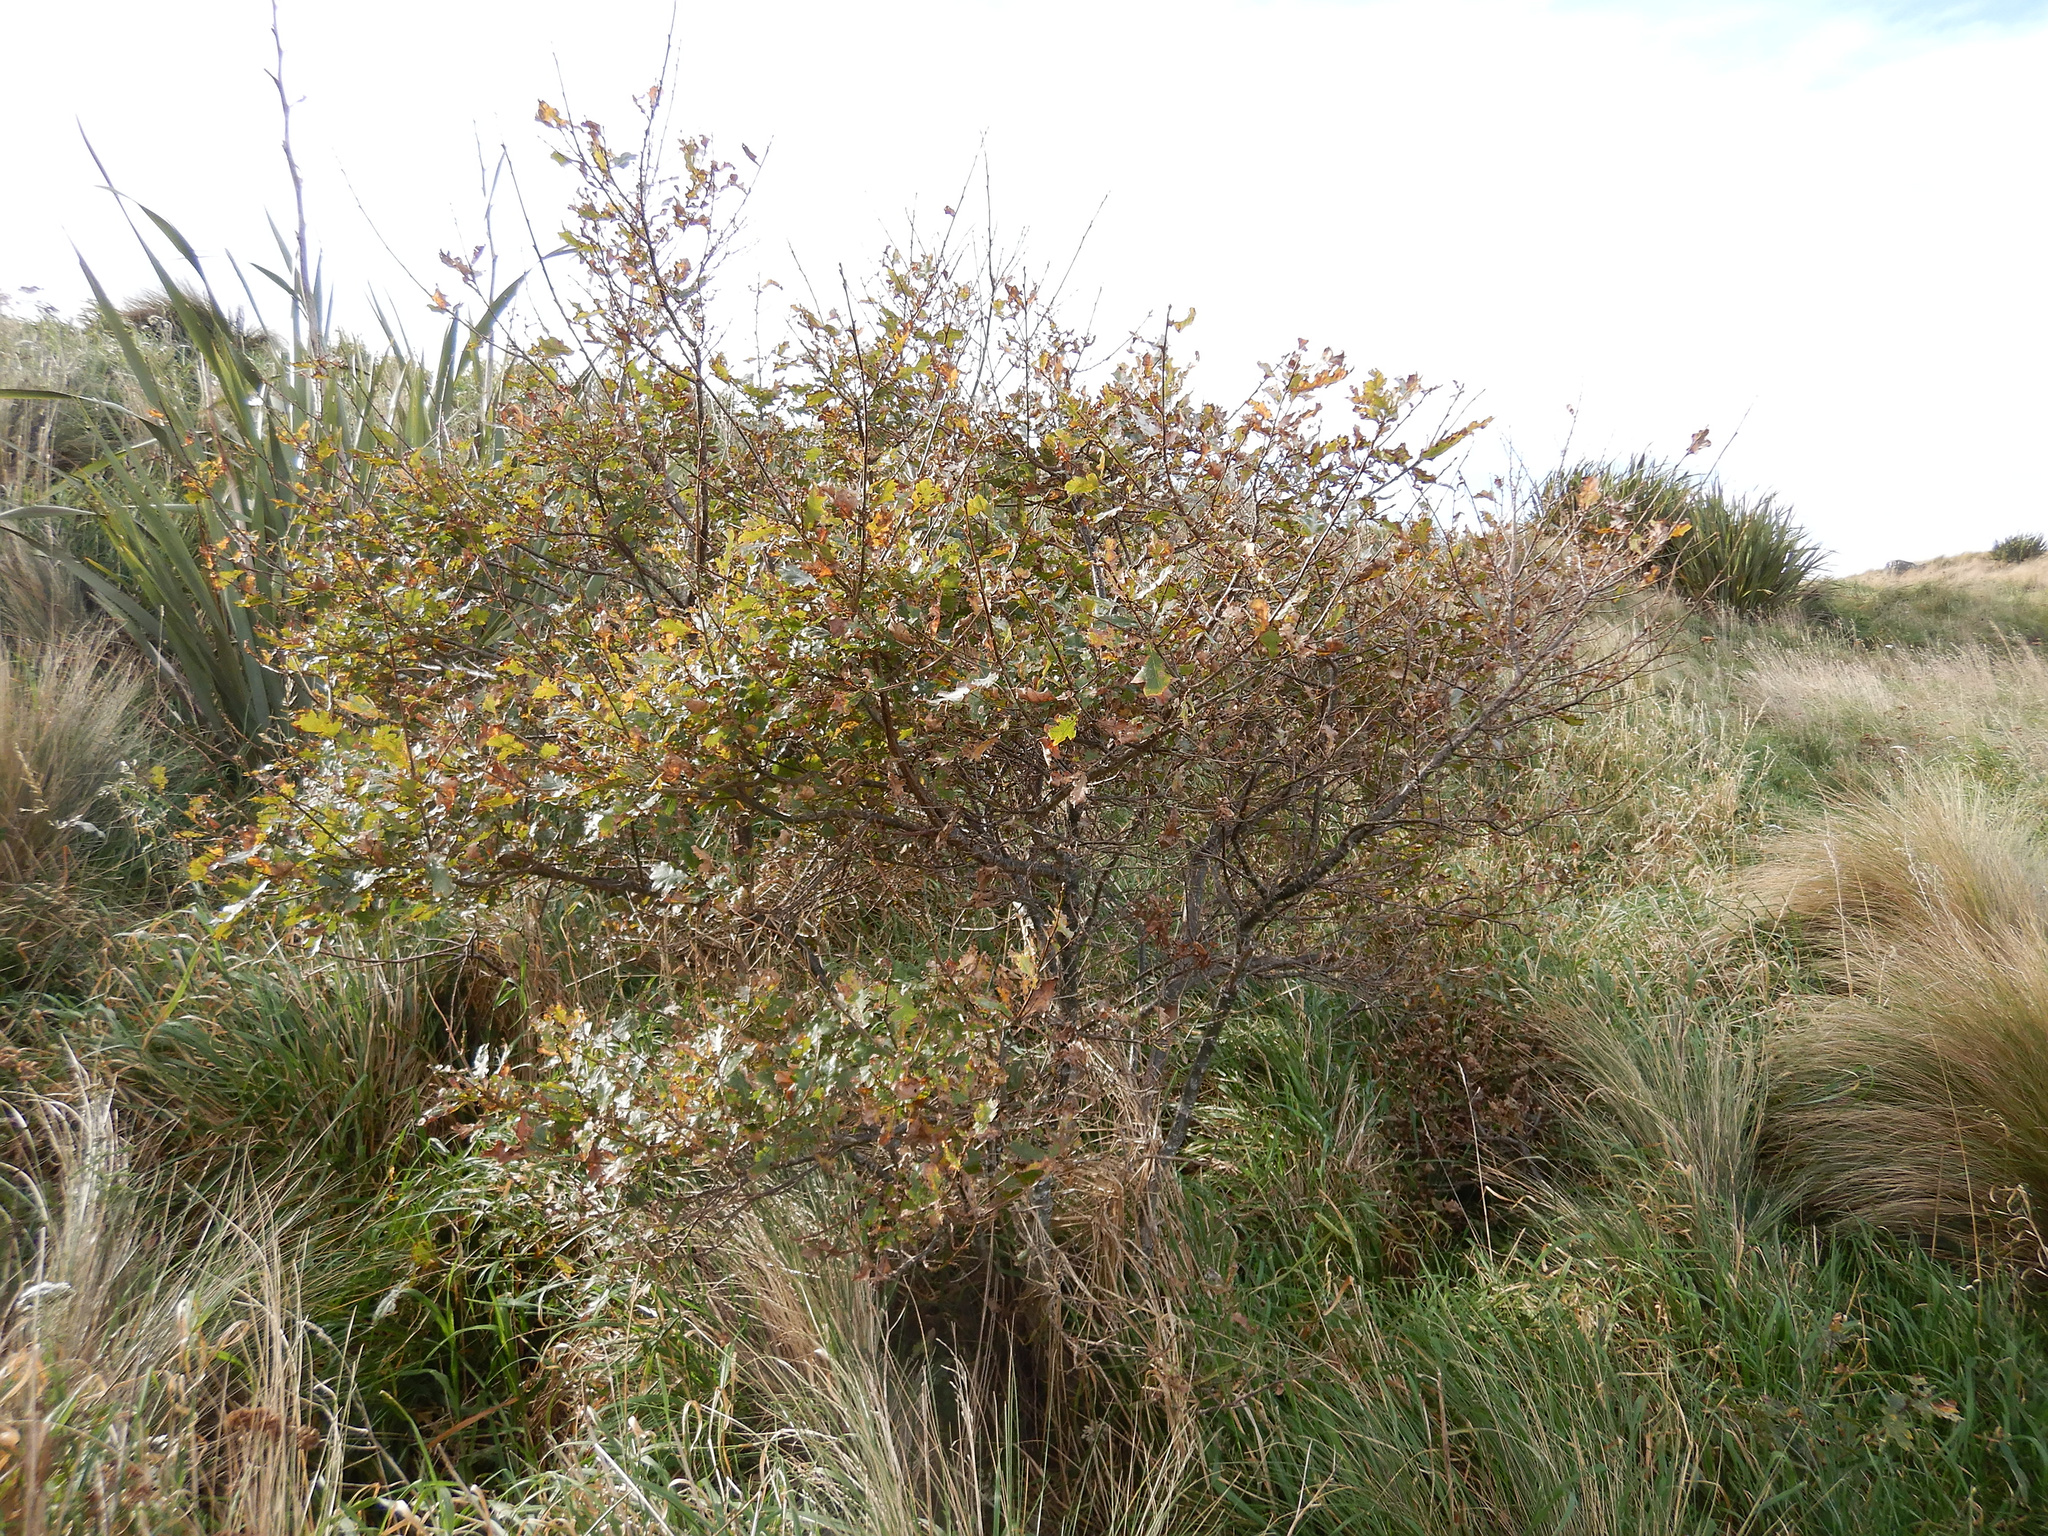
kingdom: Plantae
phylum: Tracheophyta
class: Magnoliopsida
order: Fagales
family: Fagaceae
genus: Quercus
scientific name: Quercus robur
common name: Pedunculate oak
